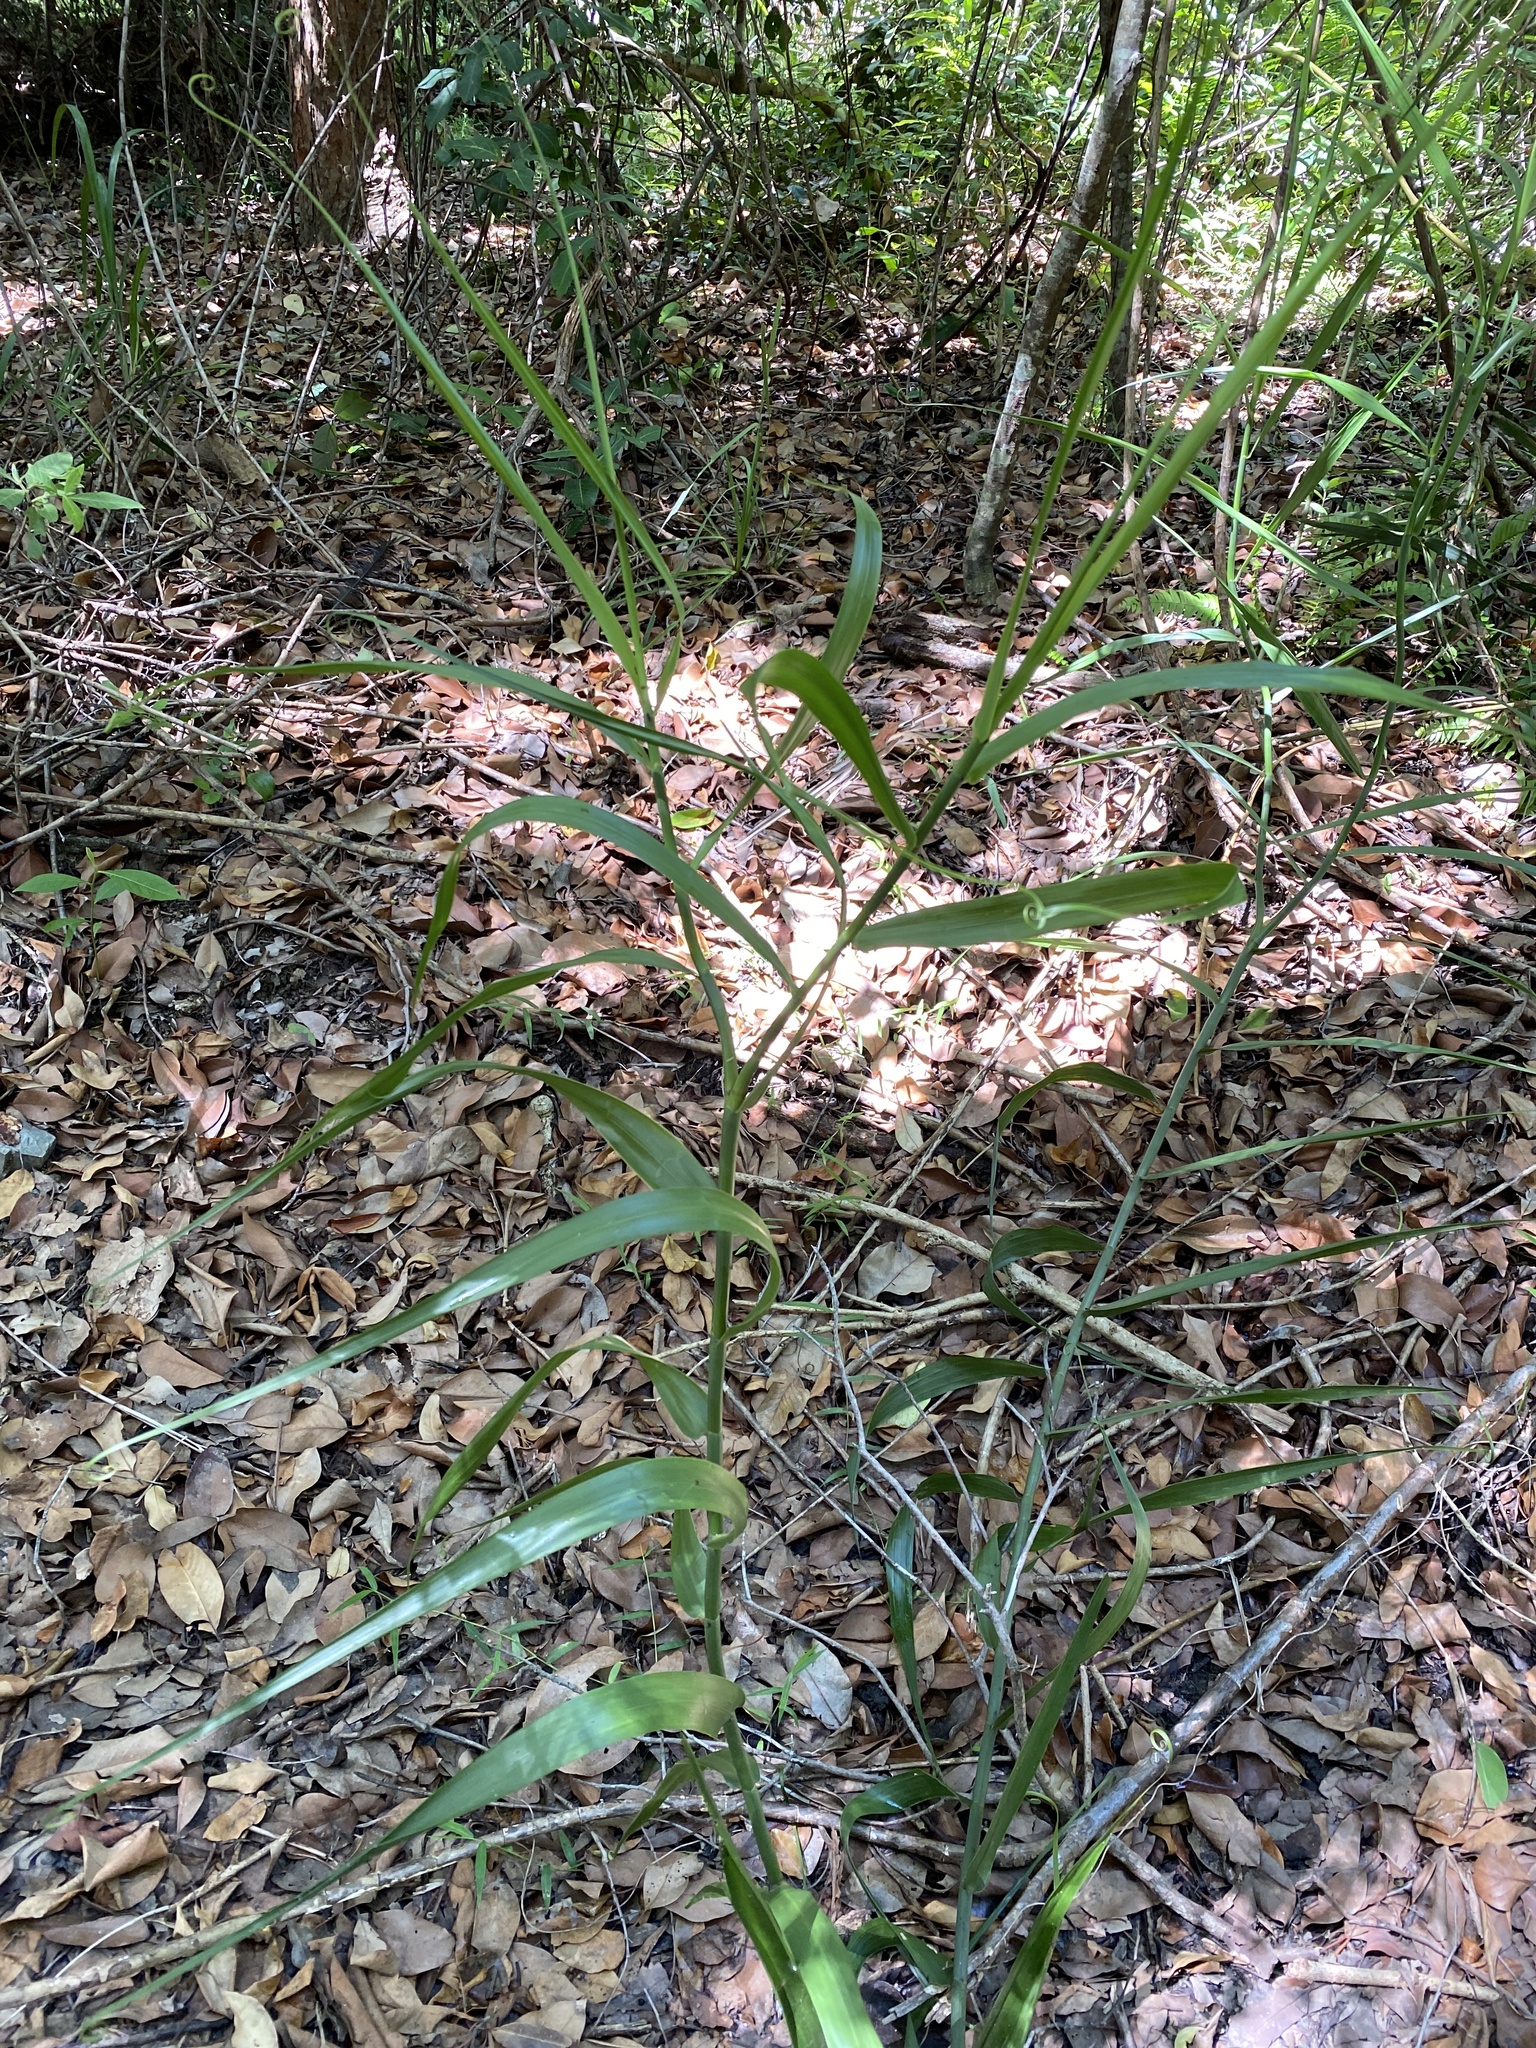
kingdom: Plantae
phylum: Tracheophyta
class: Liliopsida
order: Poales
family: Flagellariaceae
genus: Flagellaria
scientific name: Flagellaria indica
